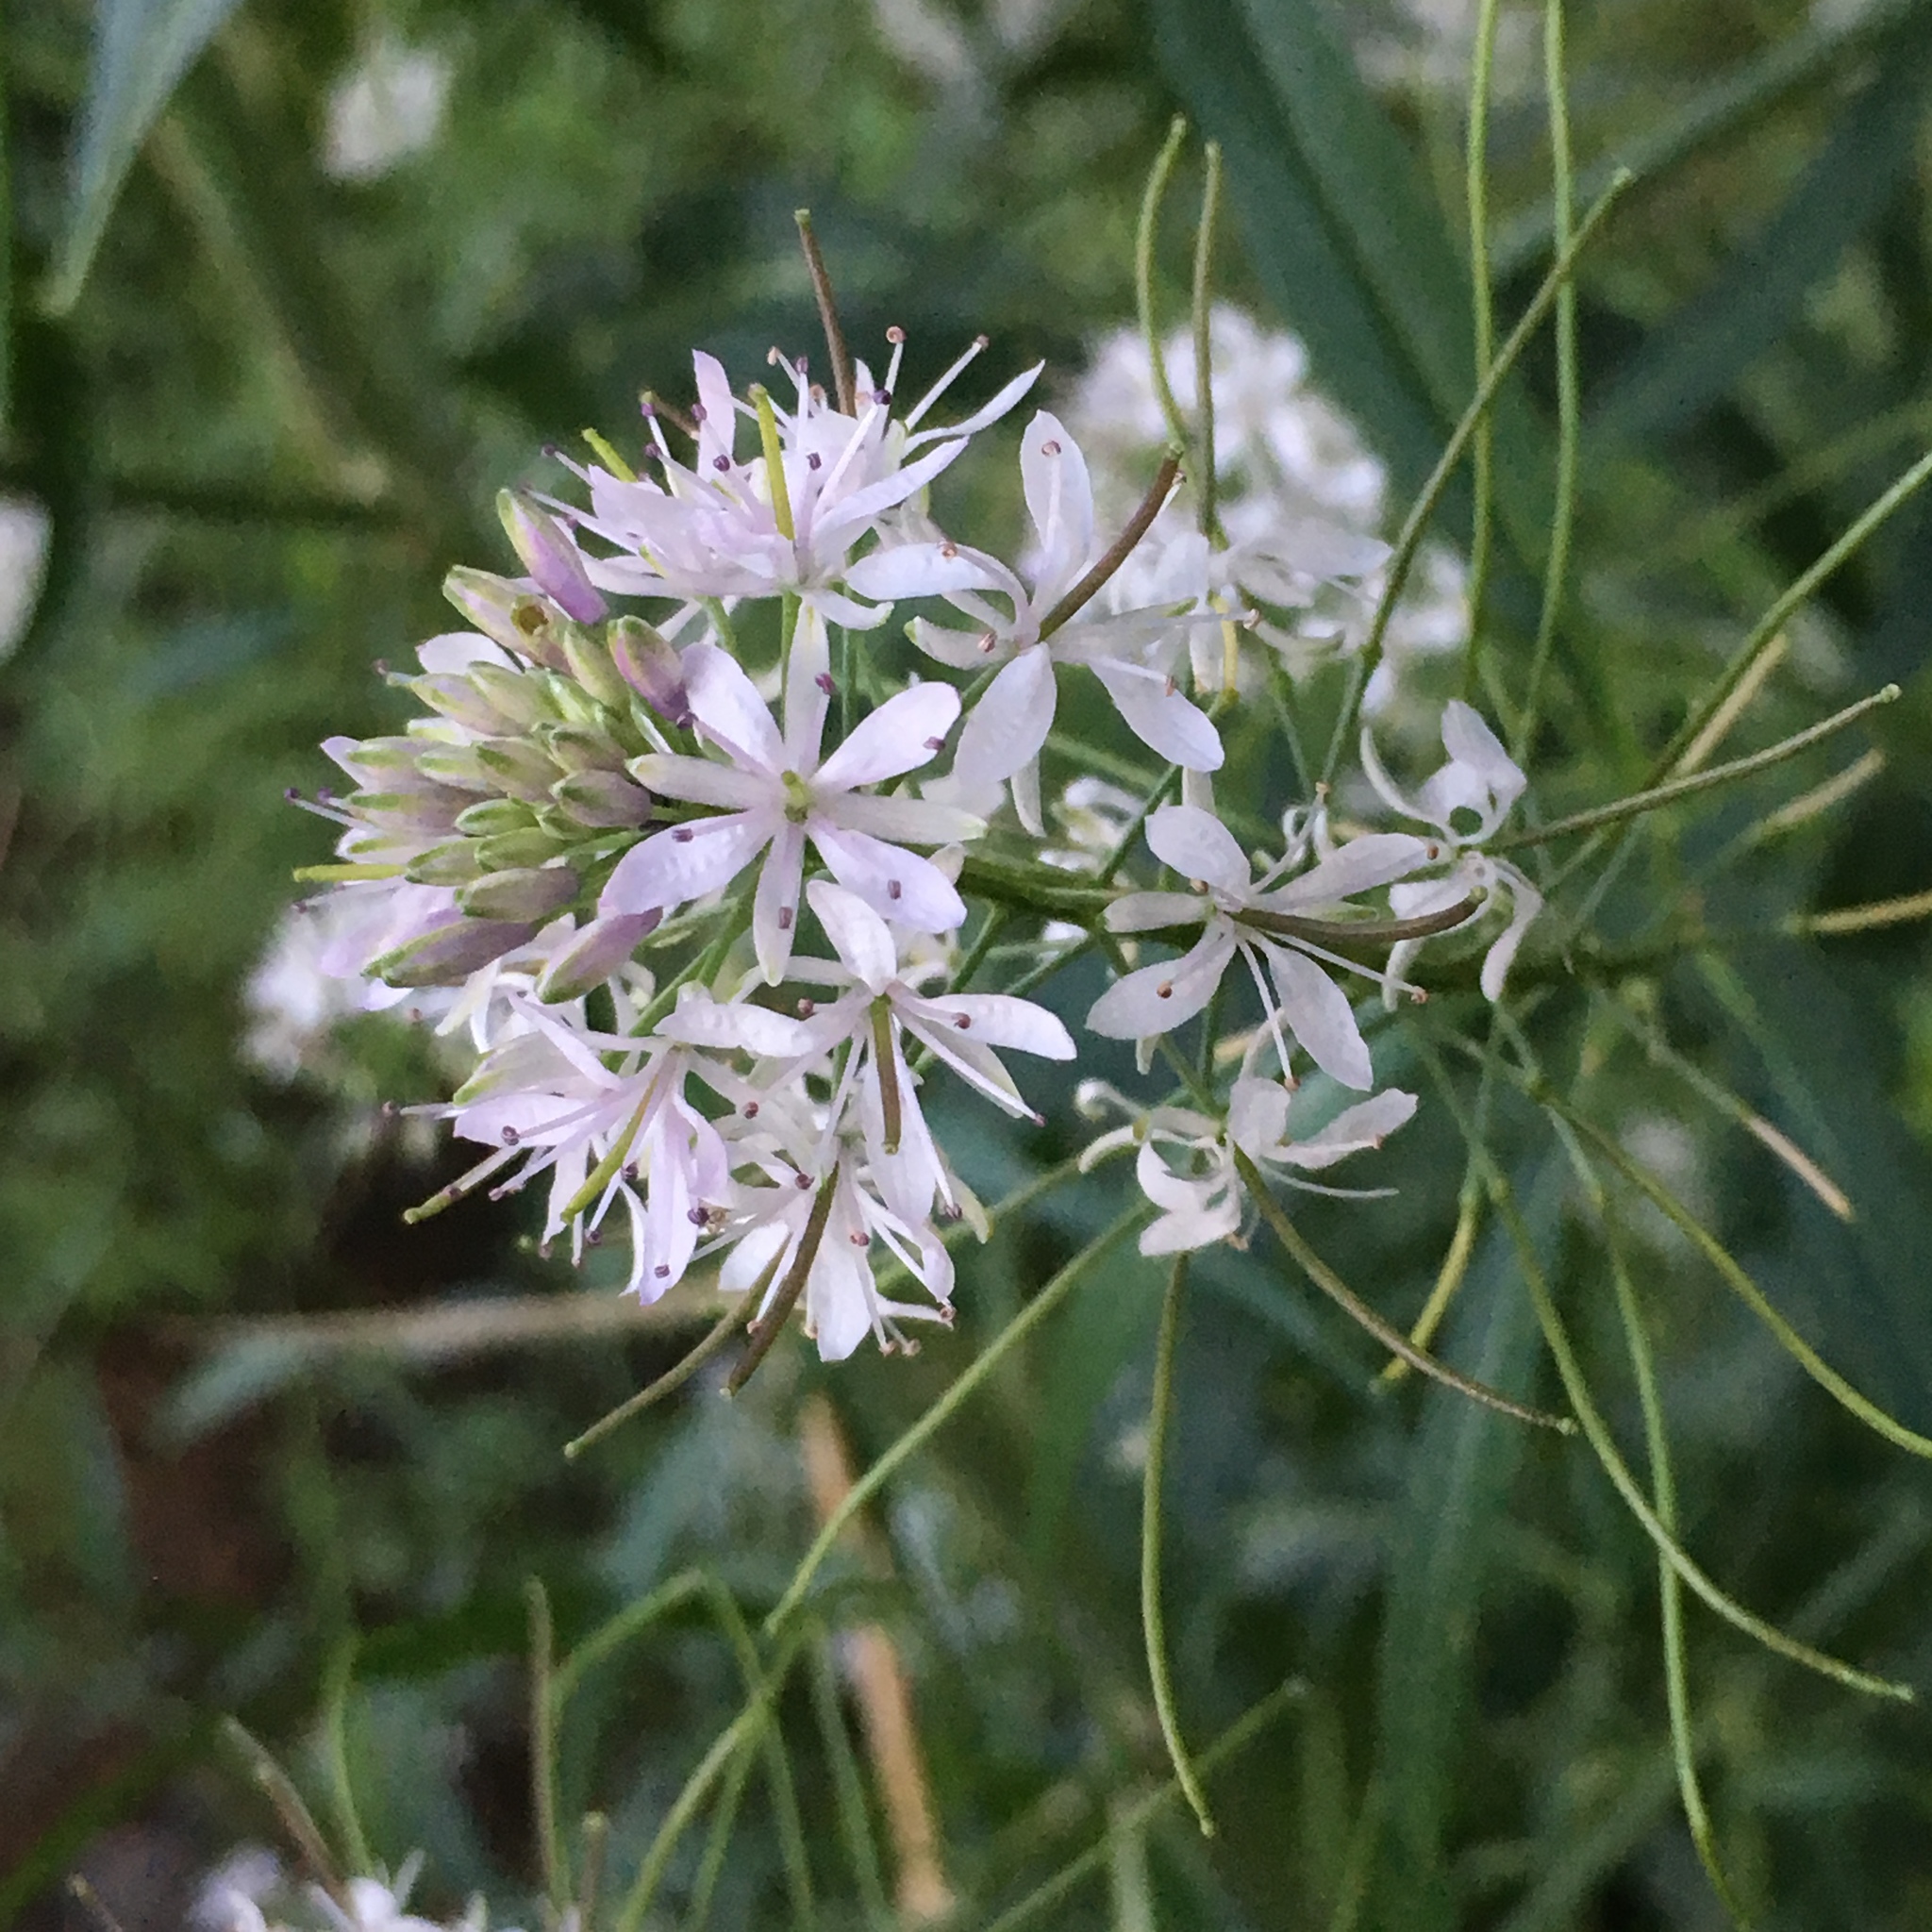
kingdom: Plantae
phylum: Tracheophyta
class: Magnoliopsida
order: Brassicales
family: Brassicaceae
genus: Thelypodium
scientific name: Thelypodium wrightii
